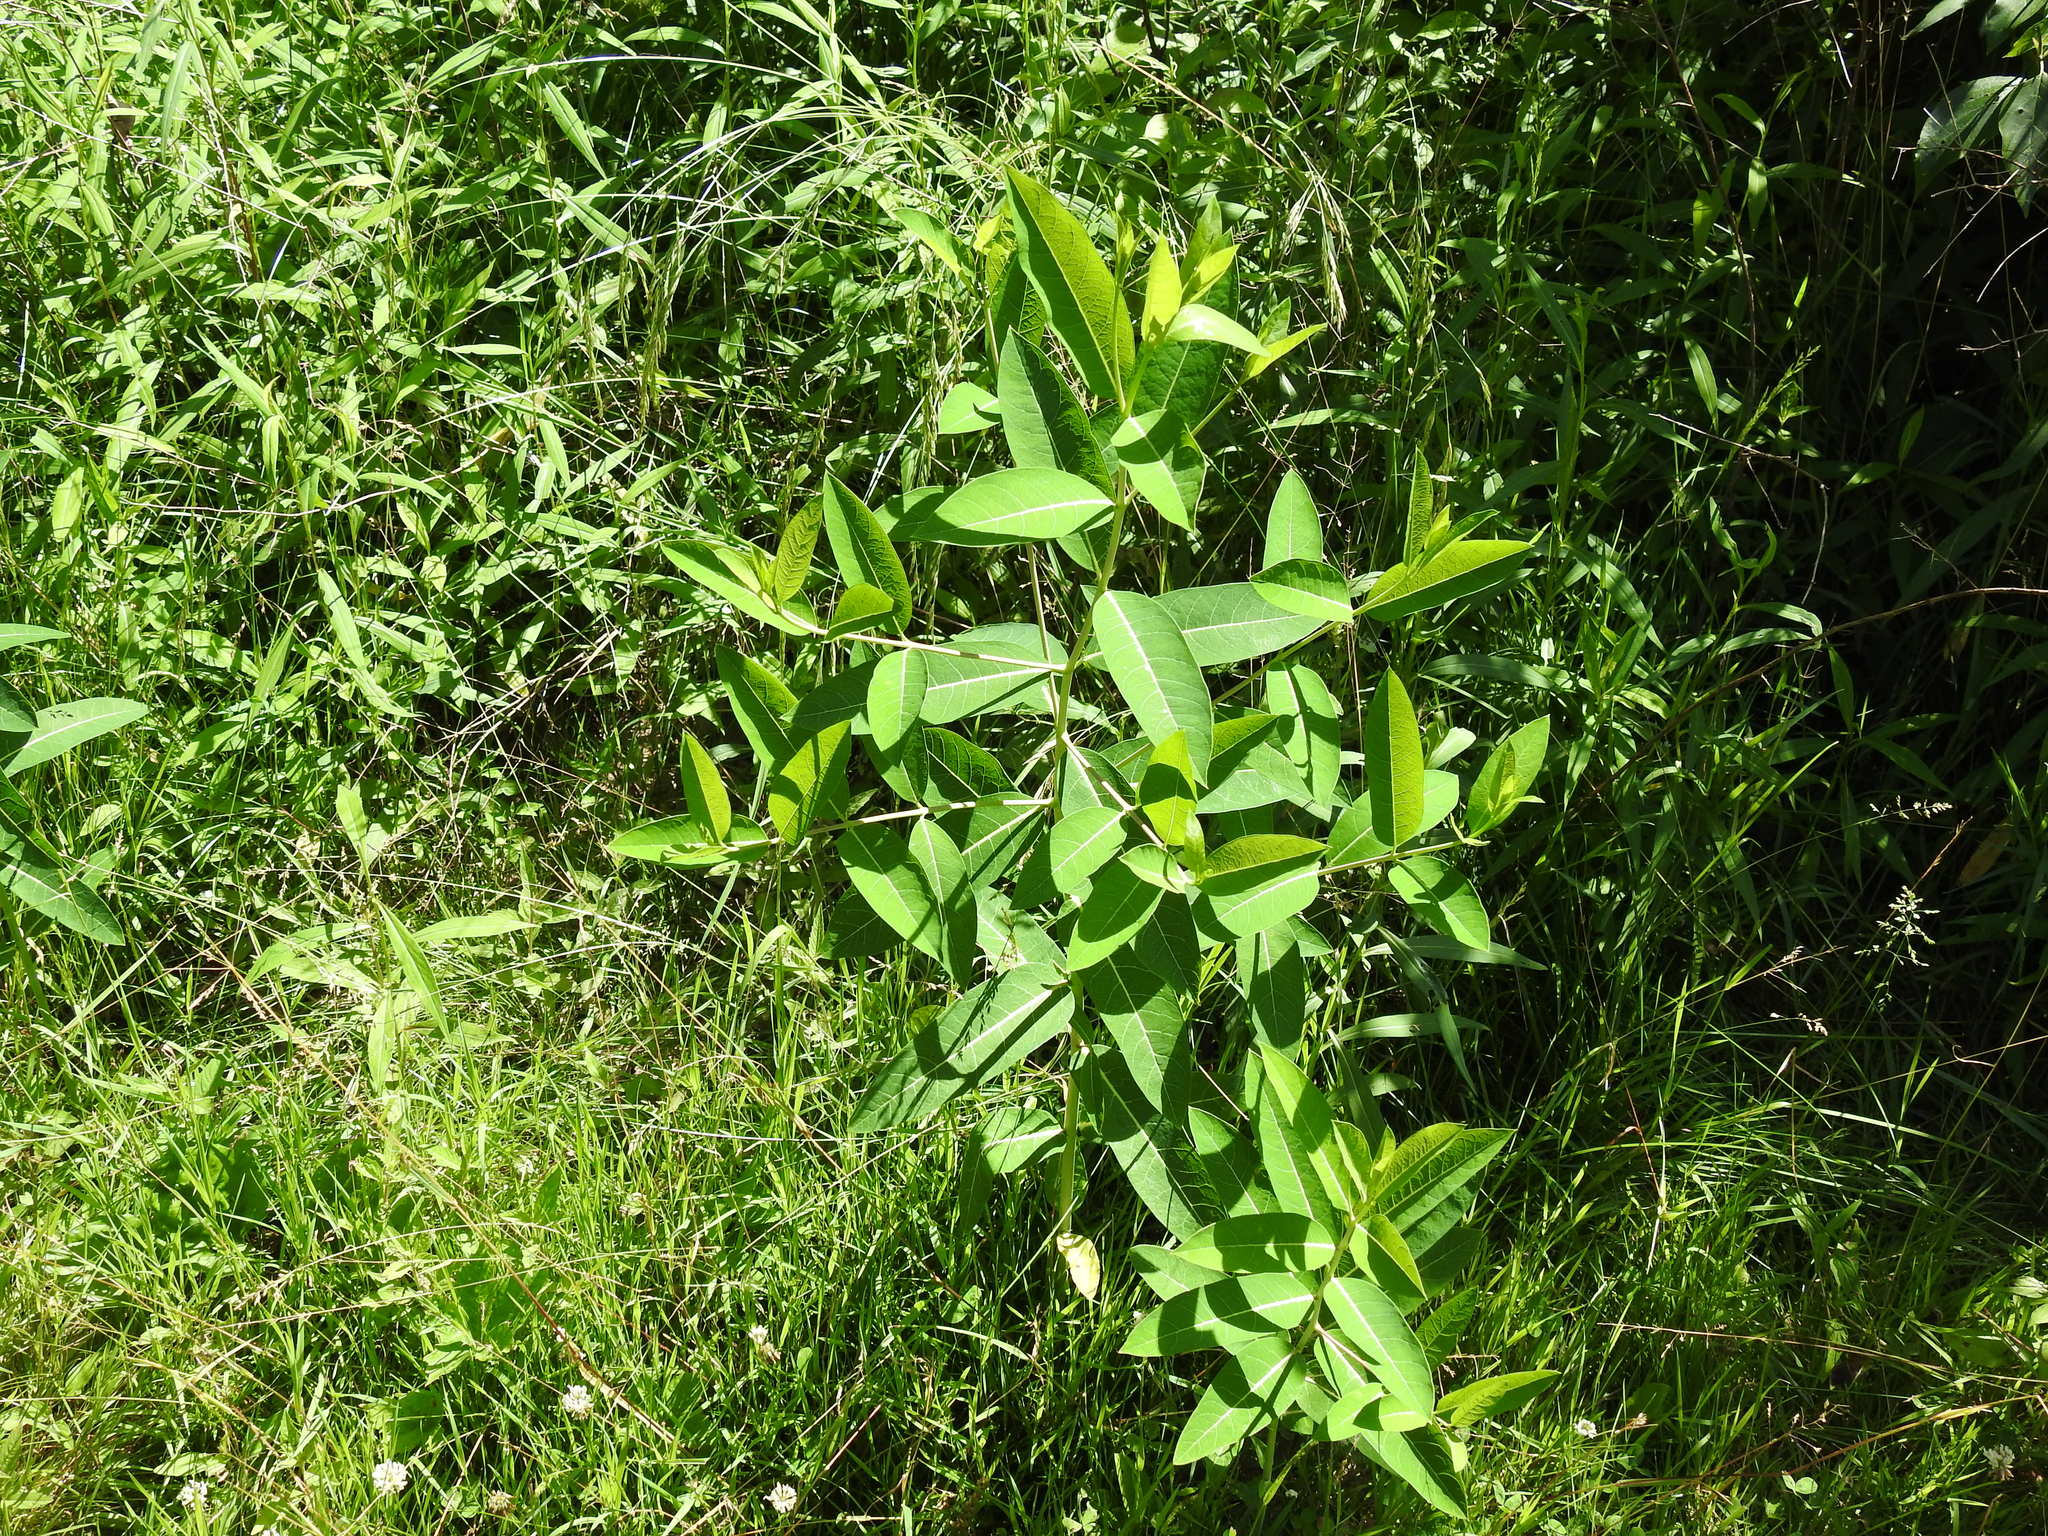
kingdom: Plantae
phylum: Tracheophyta
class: Magnoliopsida
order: Gentianales
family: Apocynaceae
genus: Apocynum
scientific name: Apocynum cannabinum
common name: Hemp dogbane
